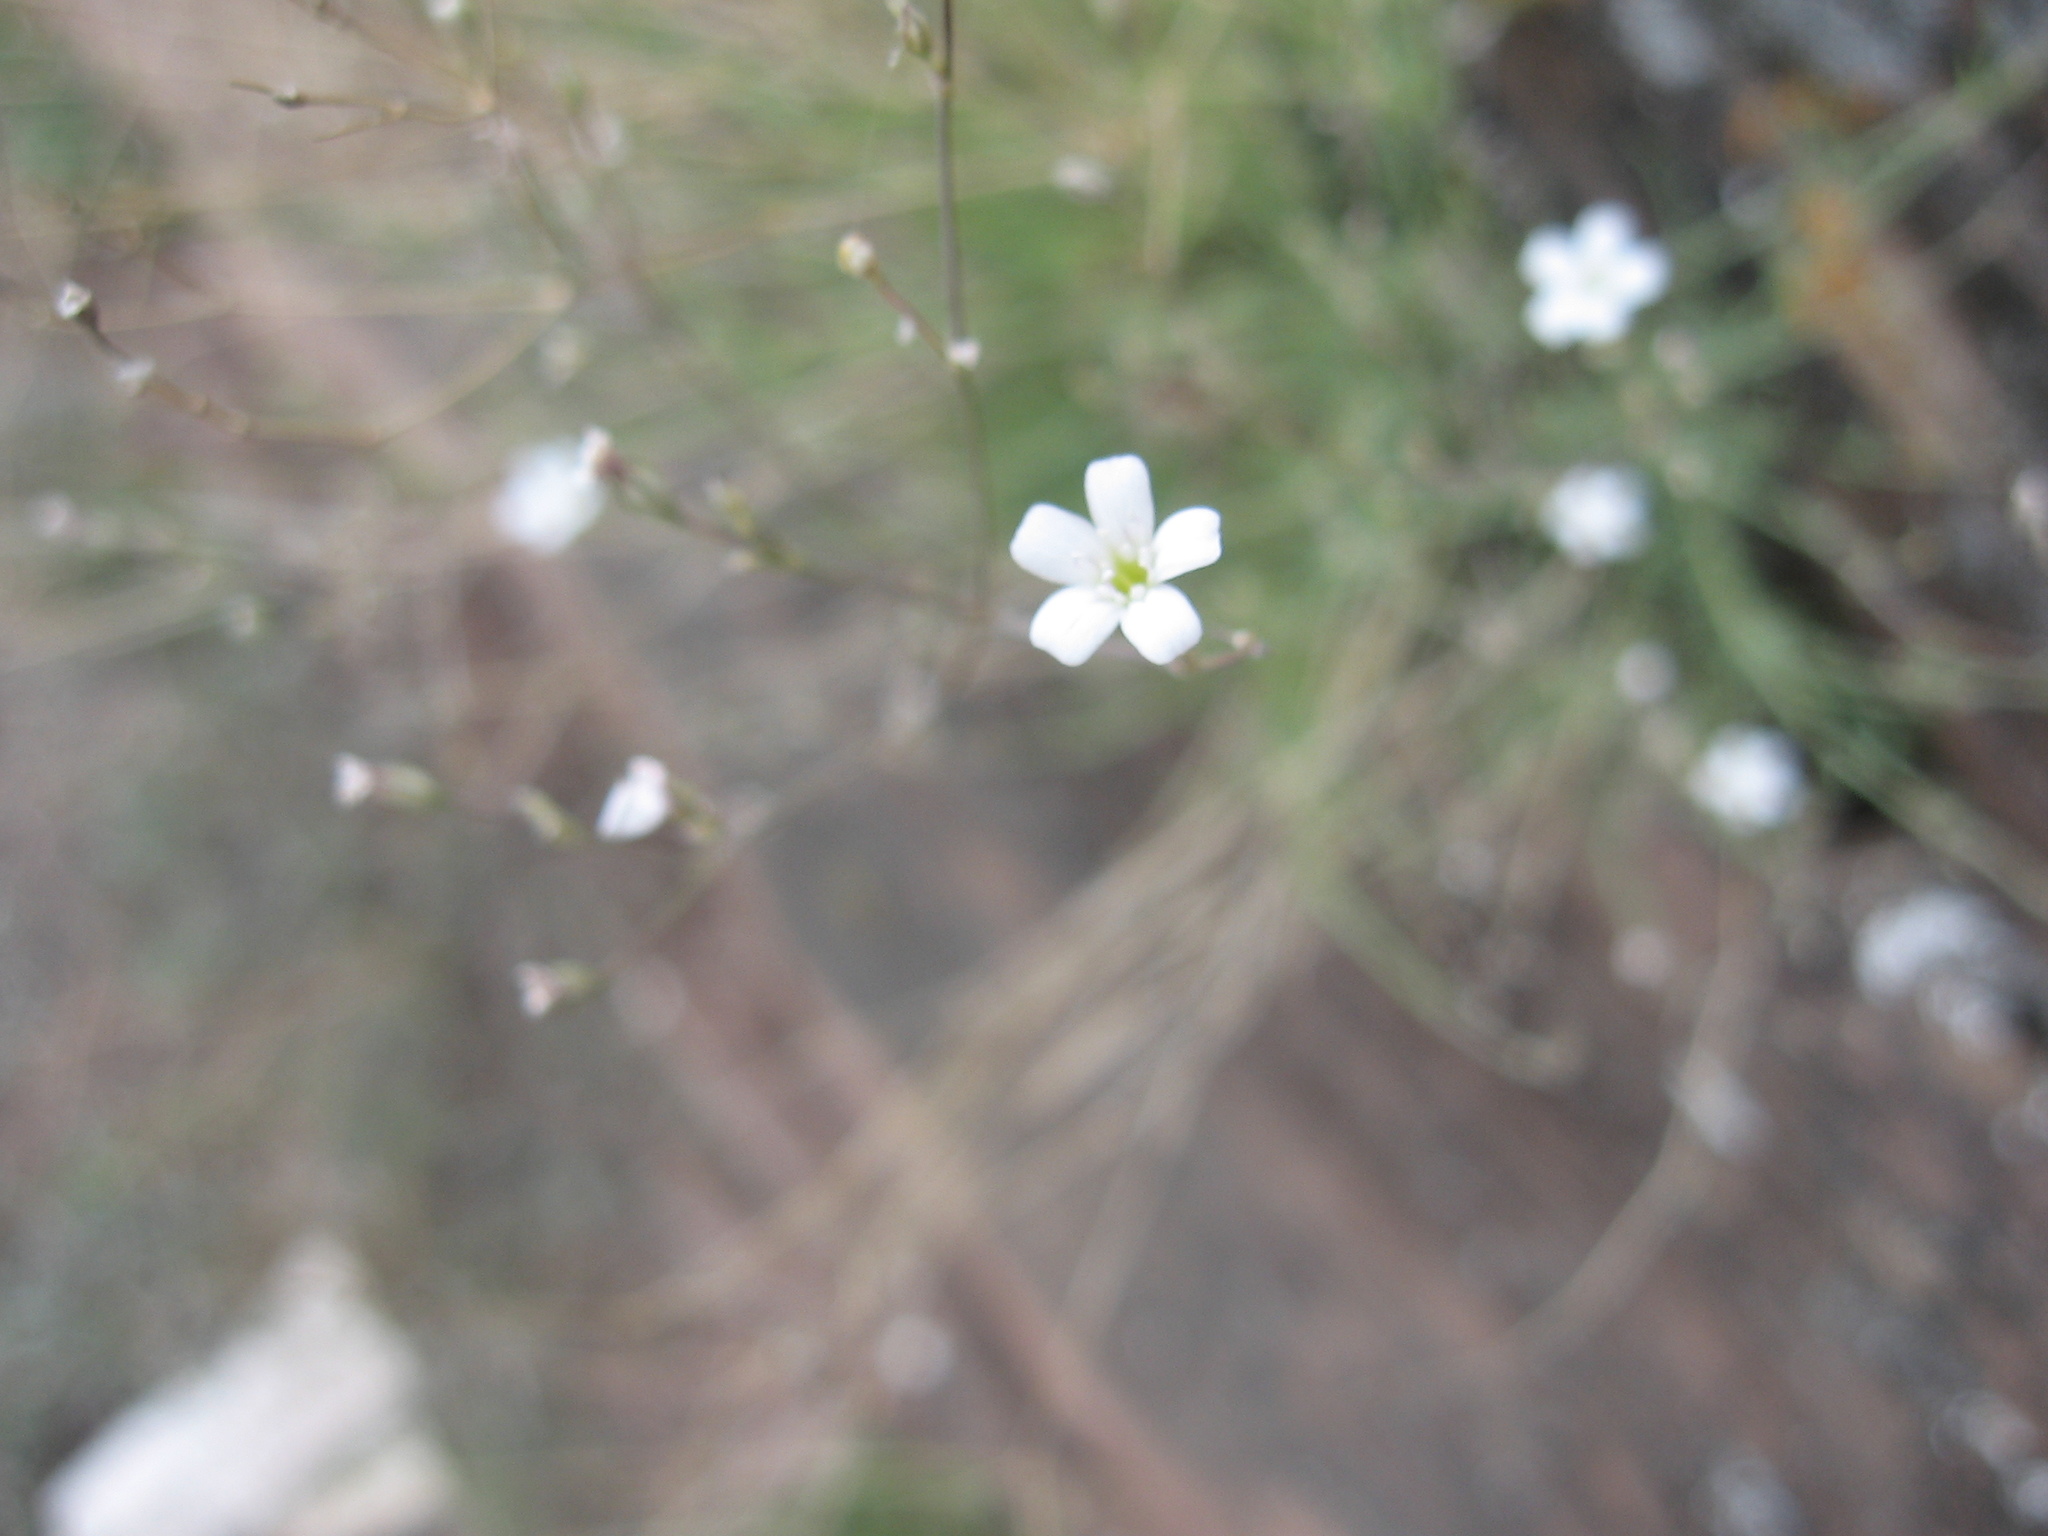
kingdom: Plantae
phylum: Tracheophyta
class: Magnoliopsida
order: Caryophyllales
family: Caryophyllaceae
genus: Gypsophila
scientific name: Gypsophila patrinii
